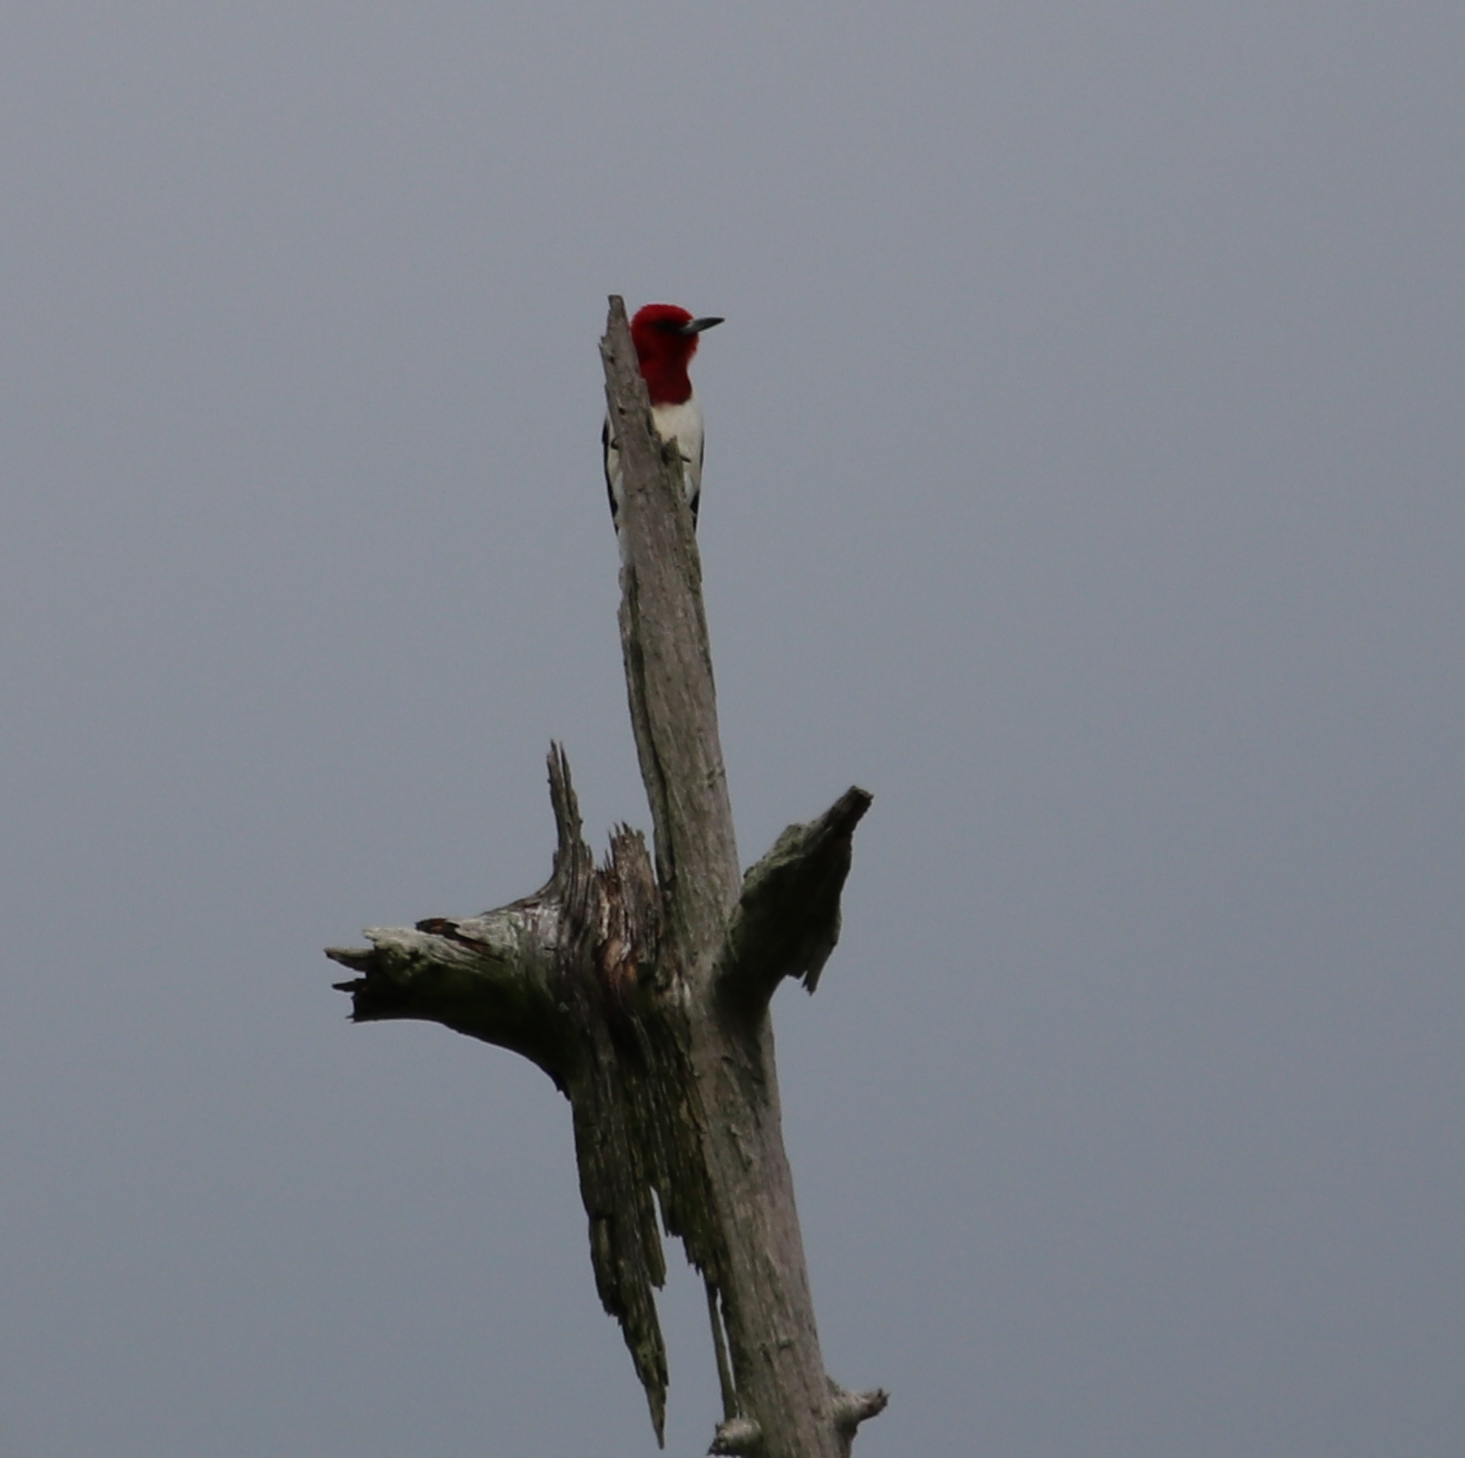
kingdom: Animalia
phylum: Chordata
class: Aves
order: Piciformes
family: Picidae
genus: Melanerpes
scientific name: Melanerpes erythrocephalus
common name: Red-headed woodpecker
